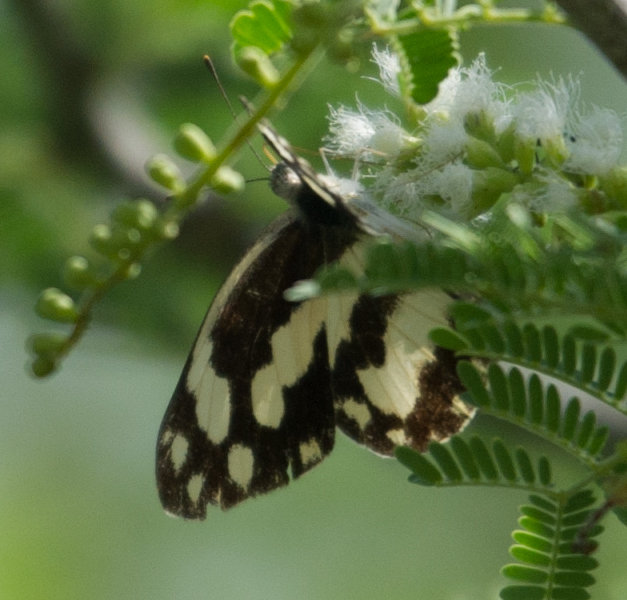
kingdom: Animalia
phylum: Arthropoda
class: Insecta
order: Lepidoptera
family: Pieridae
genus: Pinacopteryx
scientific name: Pinacopteryx eriphia
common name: Zebra white
